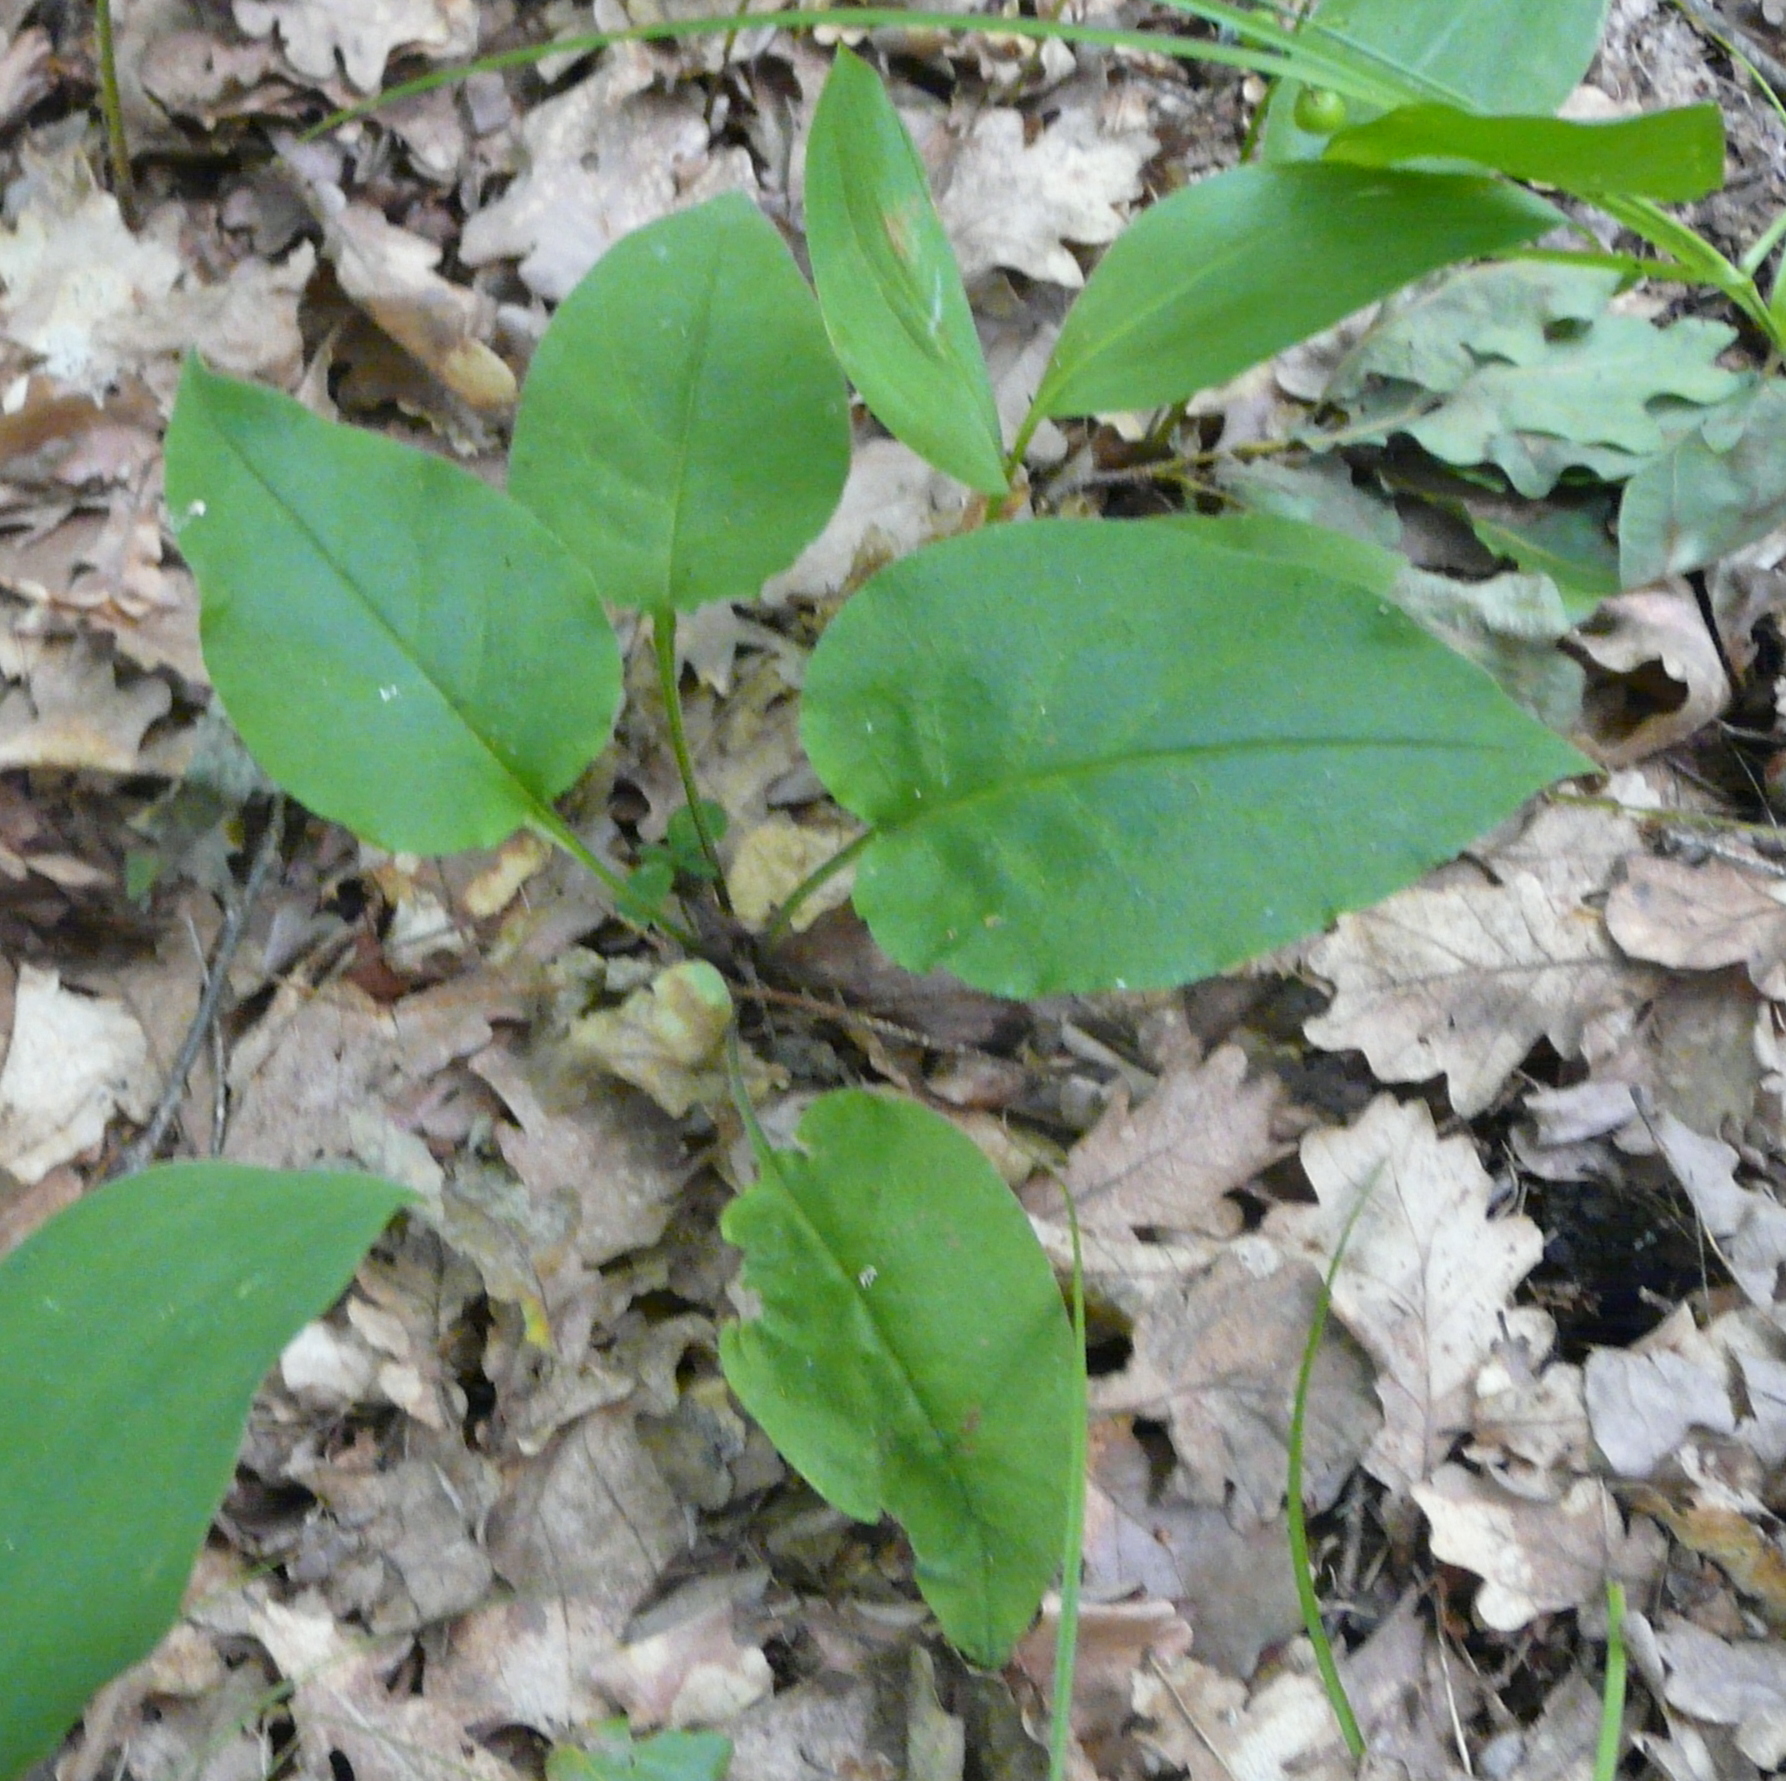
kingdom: Plantae
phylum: Tracheophyta
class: Magnoliopsida
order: Boraginales
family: Boraginaceae
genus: Pulmonaria
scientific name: Pulmonaria obscura
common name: Suffolk lungwort
